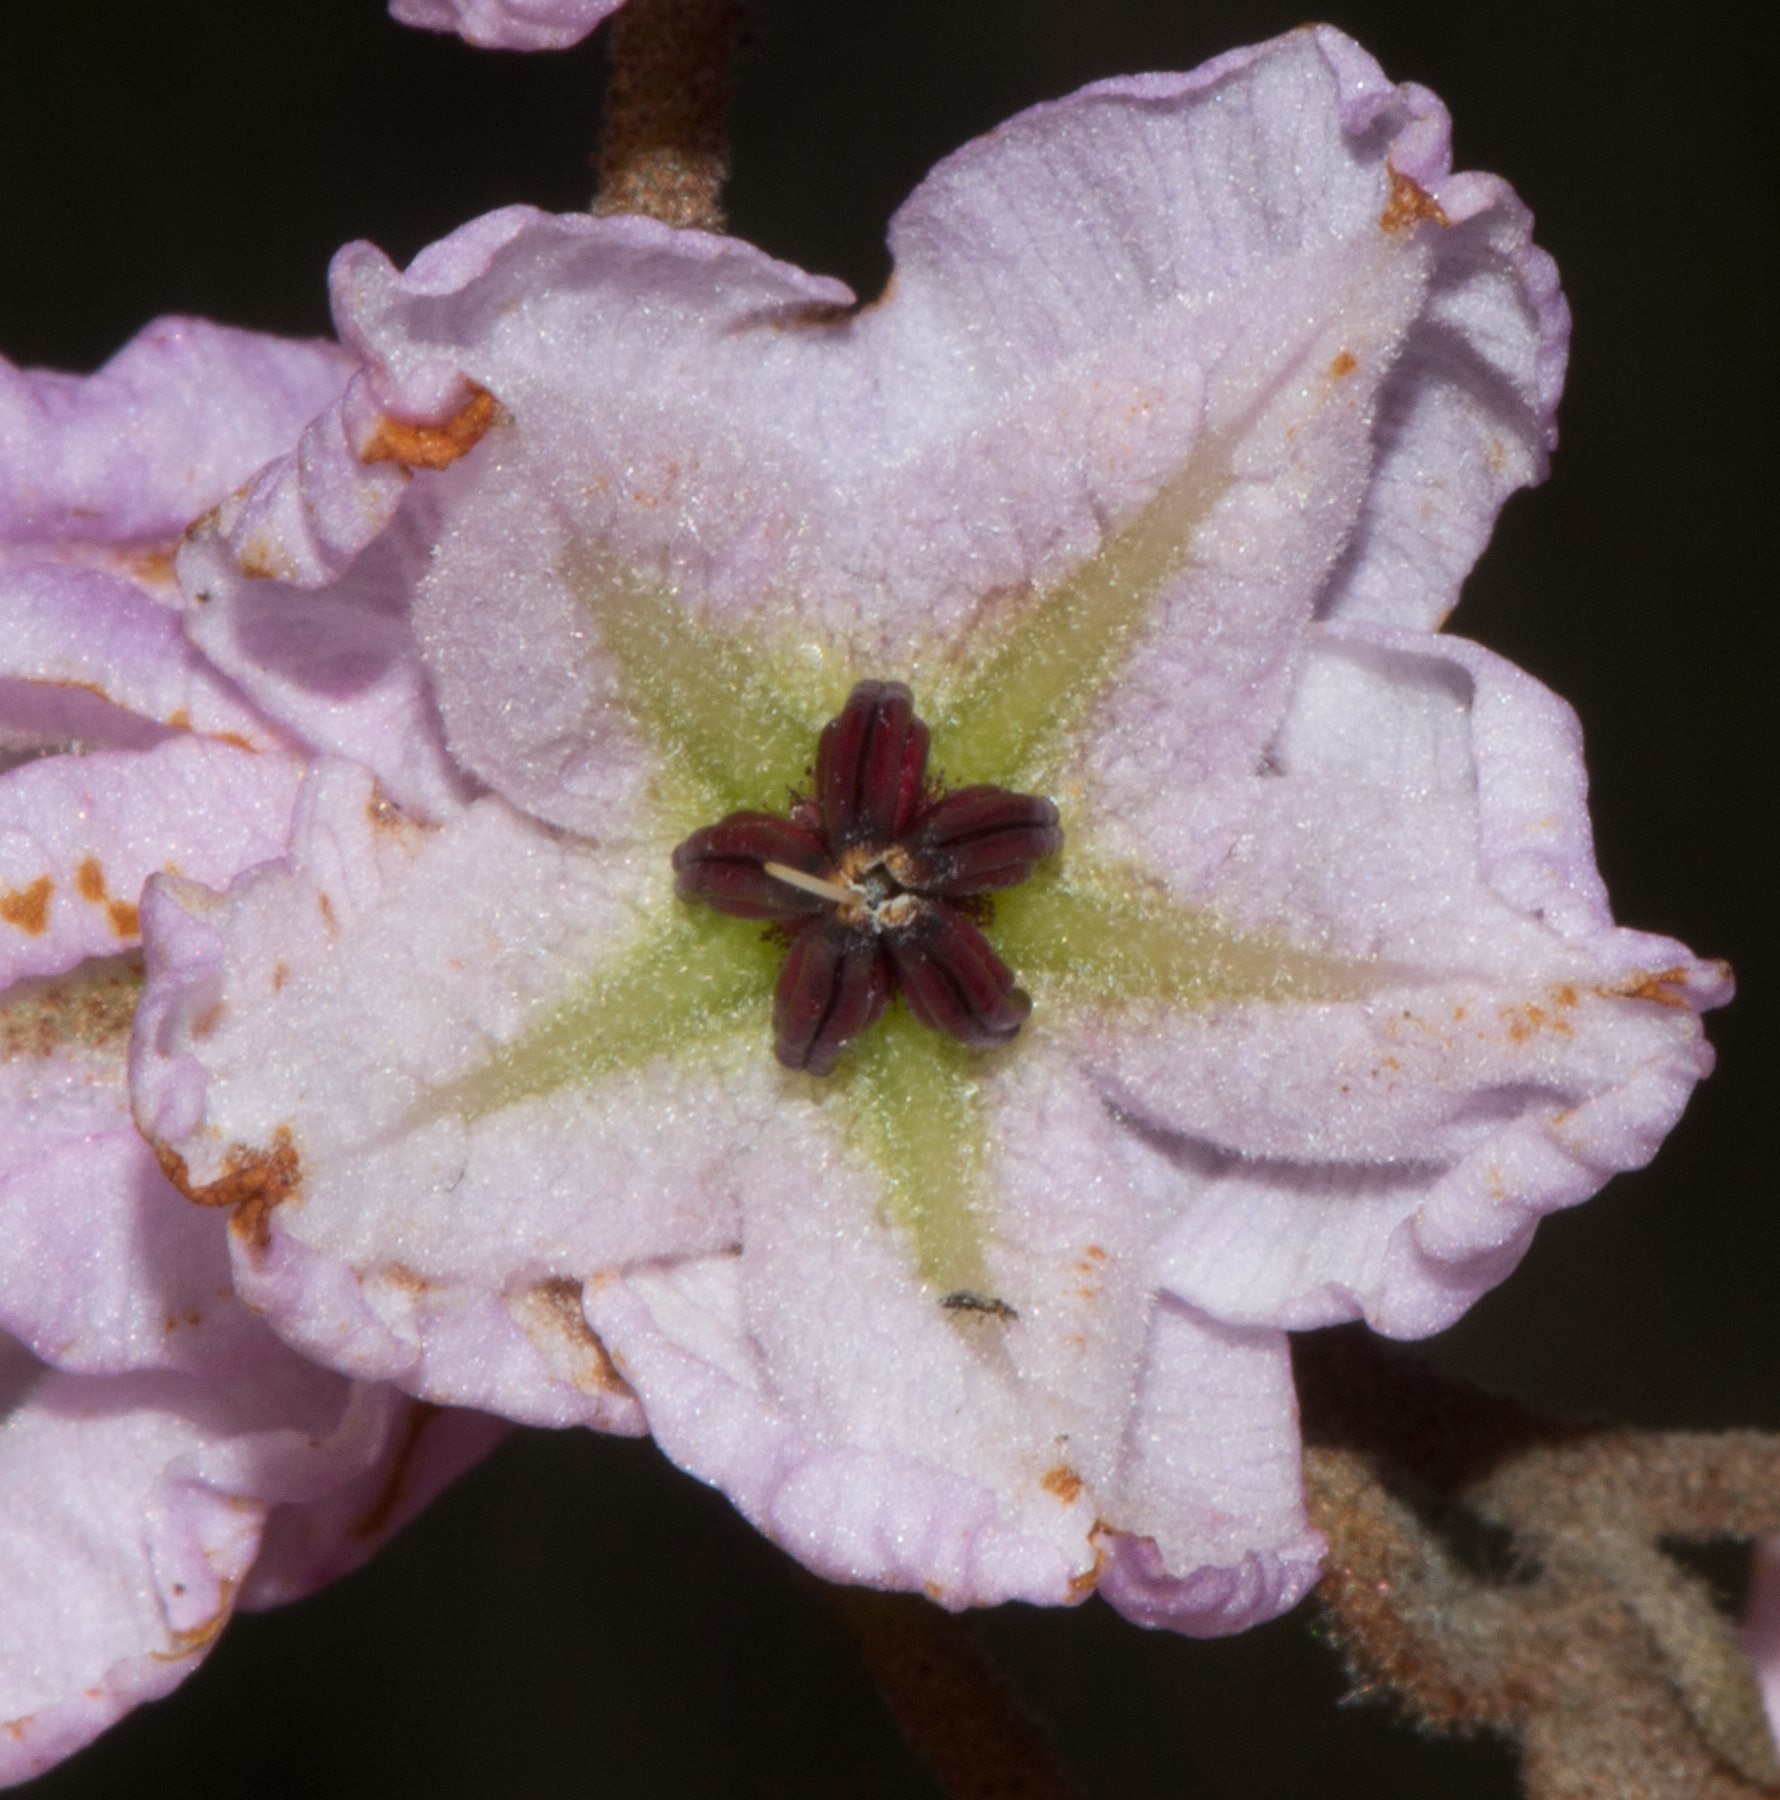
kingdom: Plantae
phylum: Tracheophyta
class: Magnoliopsida
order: Malvales
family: Malvaceae
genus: Thomasia
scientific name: Thomasia grandiflora
